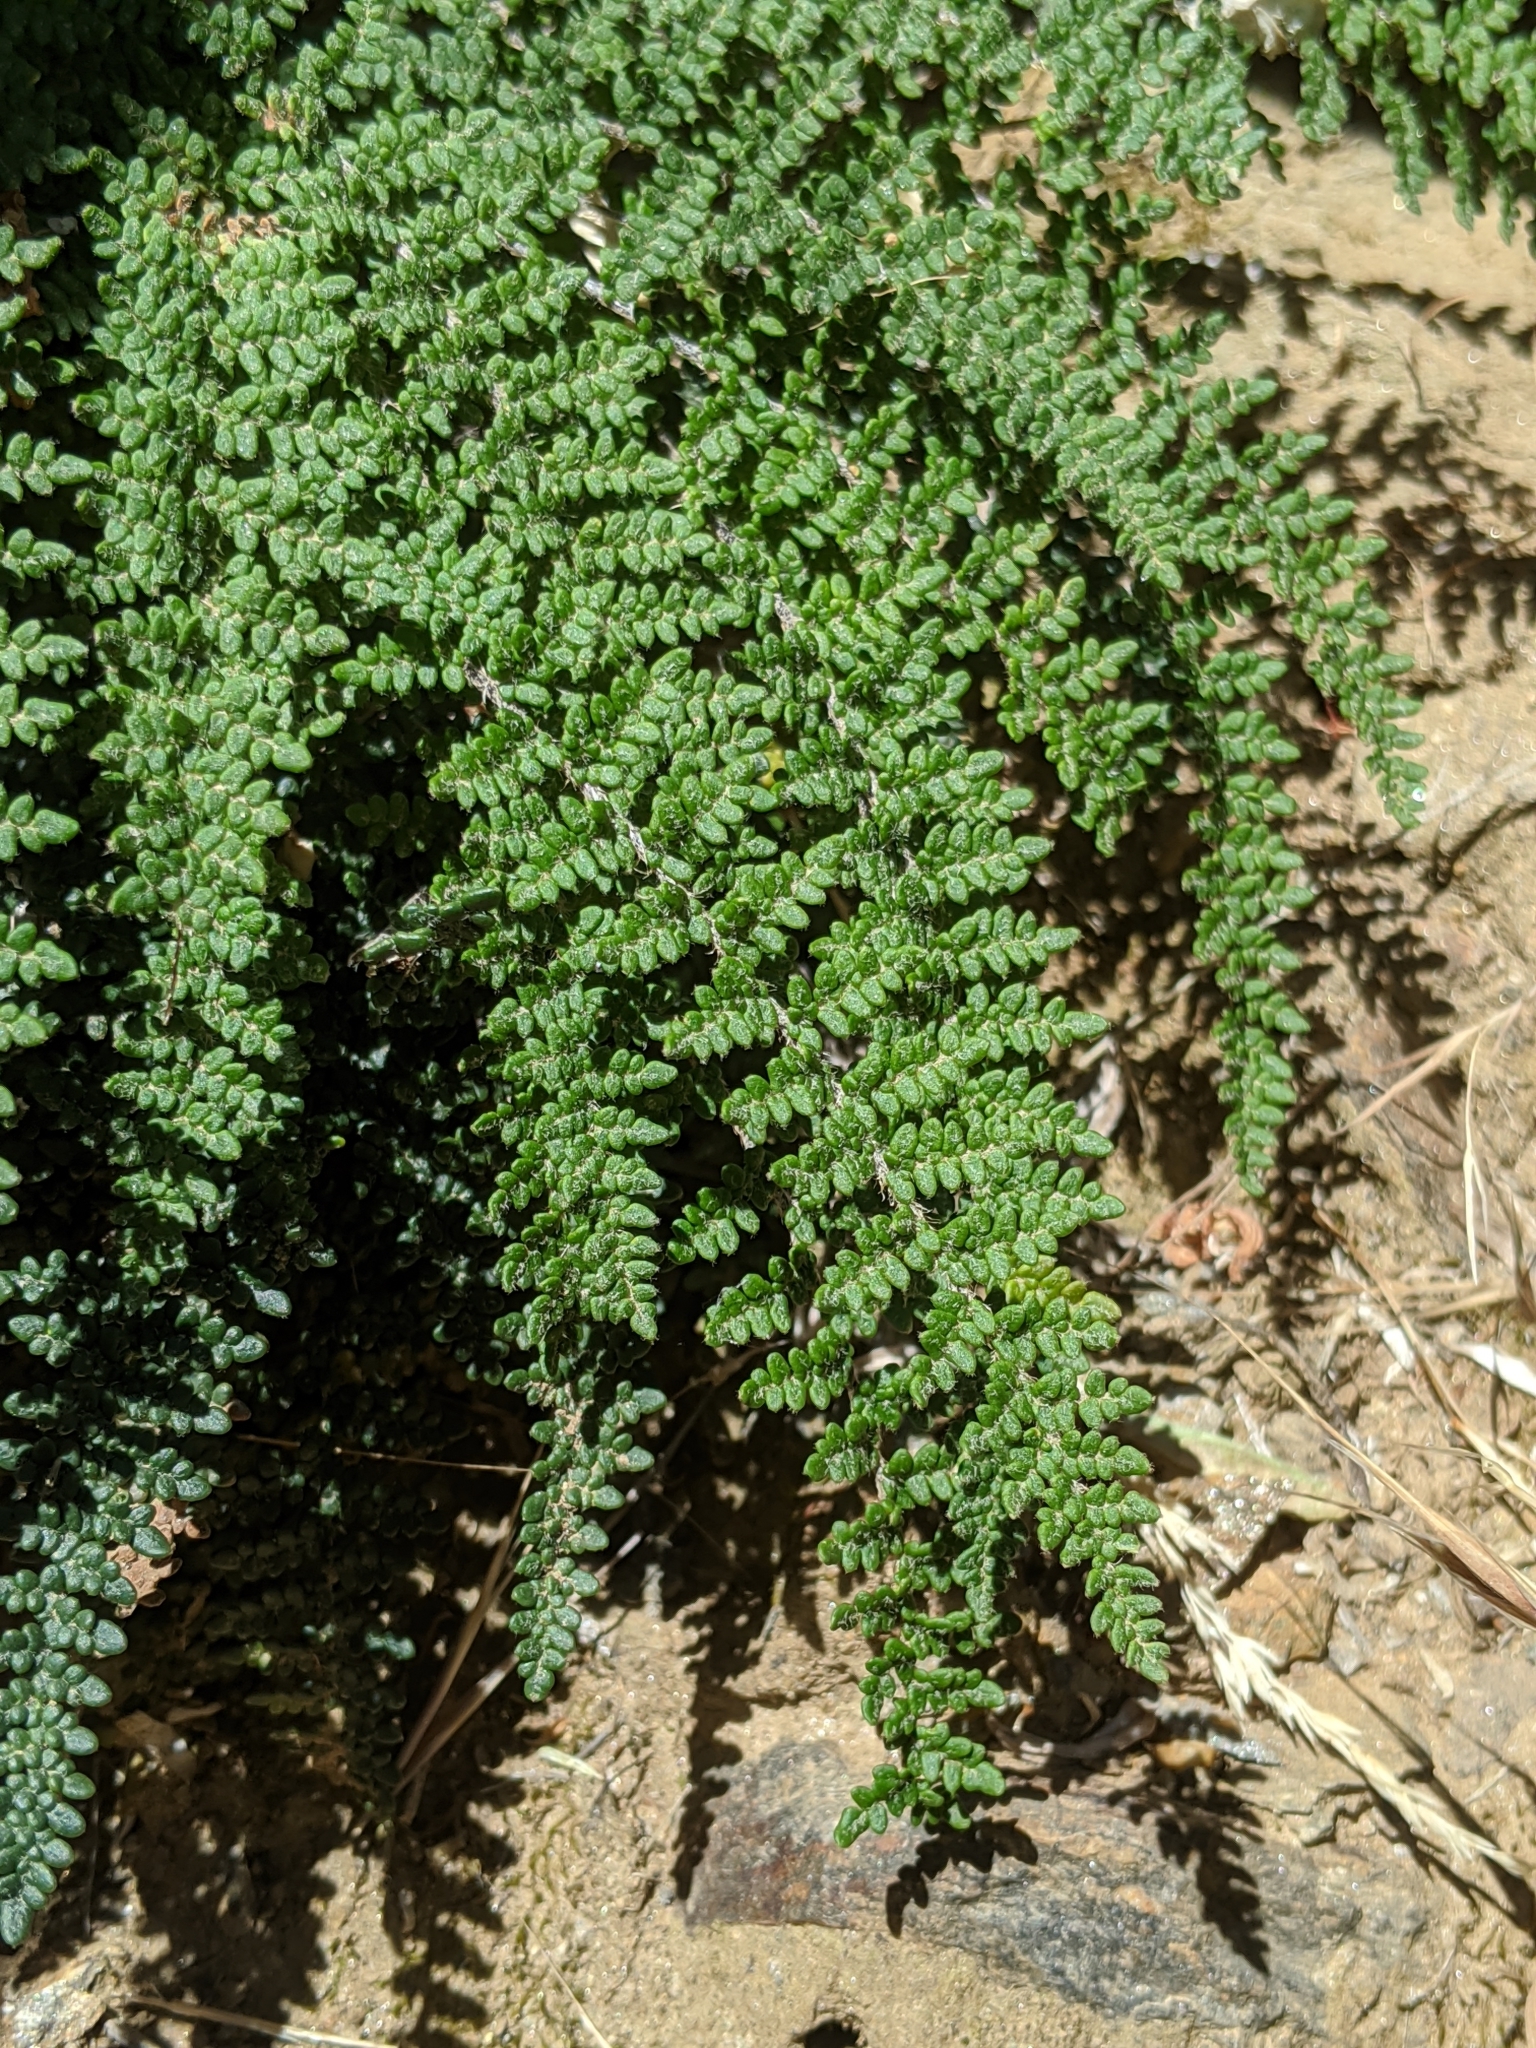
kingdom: Plantae
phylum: Tracheophyta
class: Polypodiopsida
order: Polypodiales
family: Pteridaceae
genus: Myriopteris
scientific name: Myriopteris gracillima
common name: Lace fern
